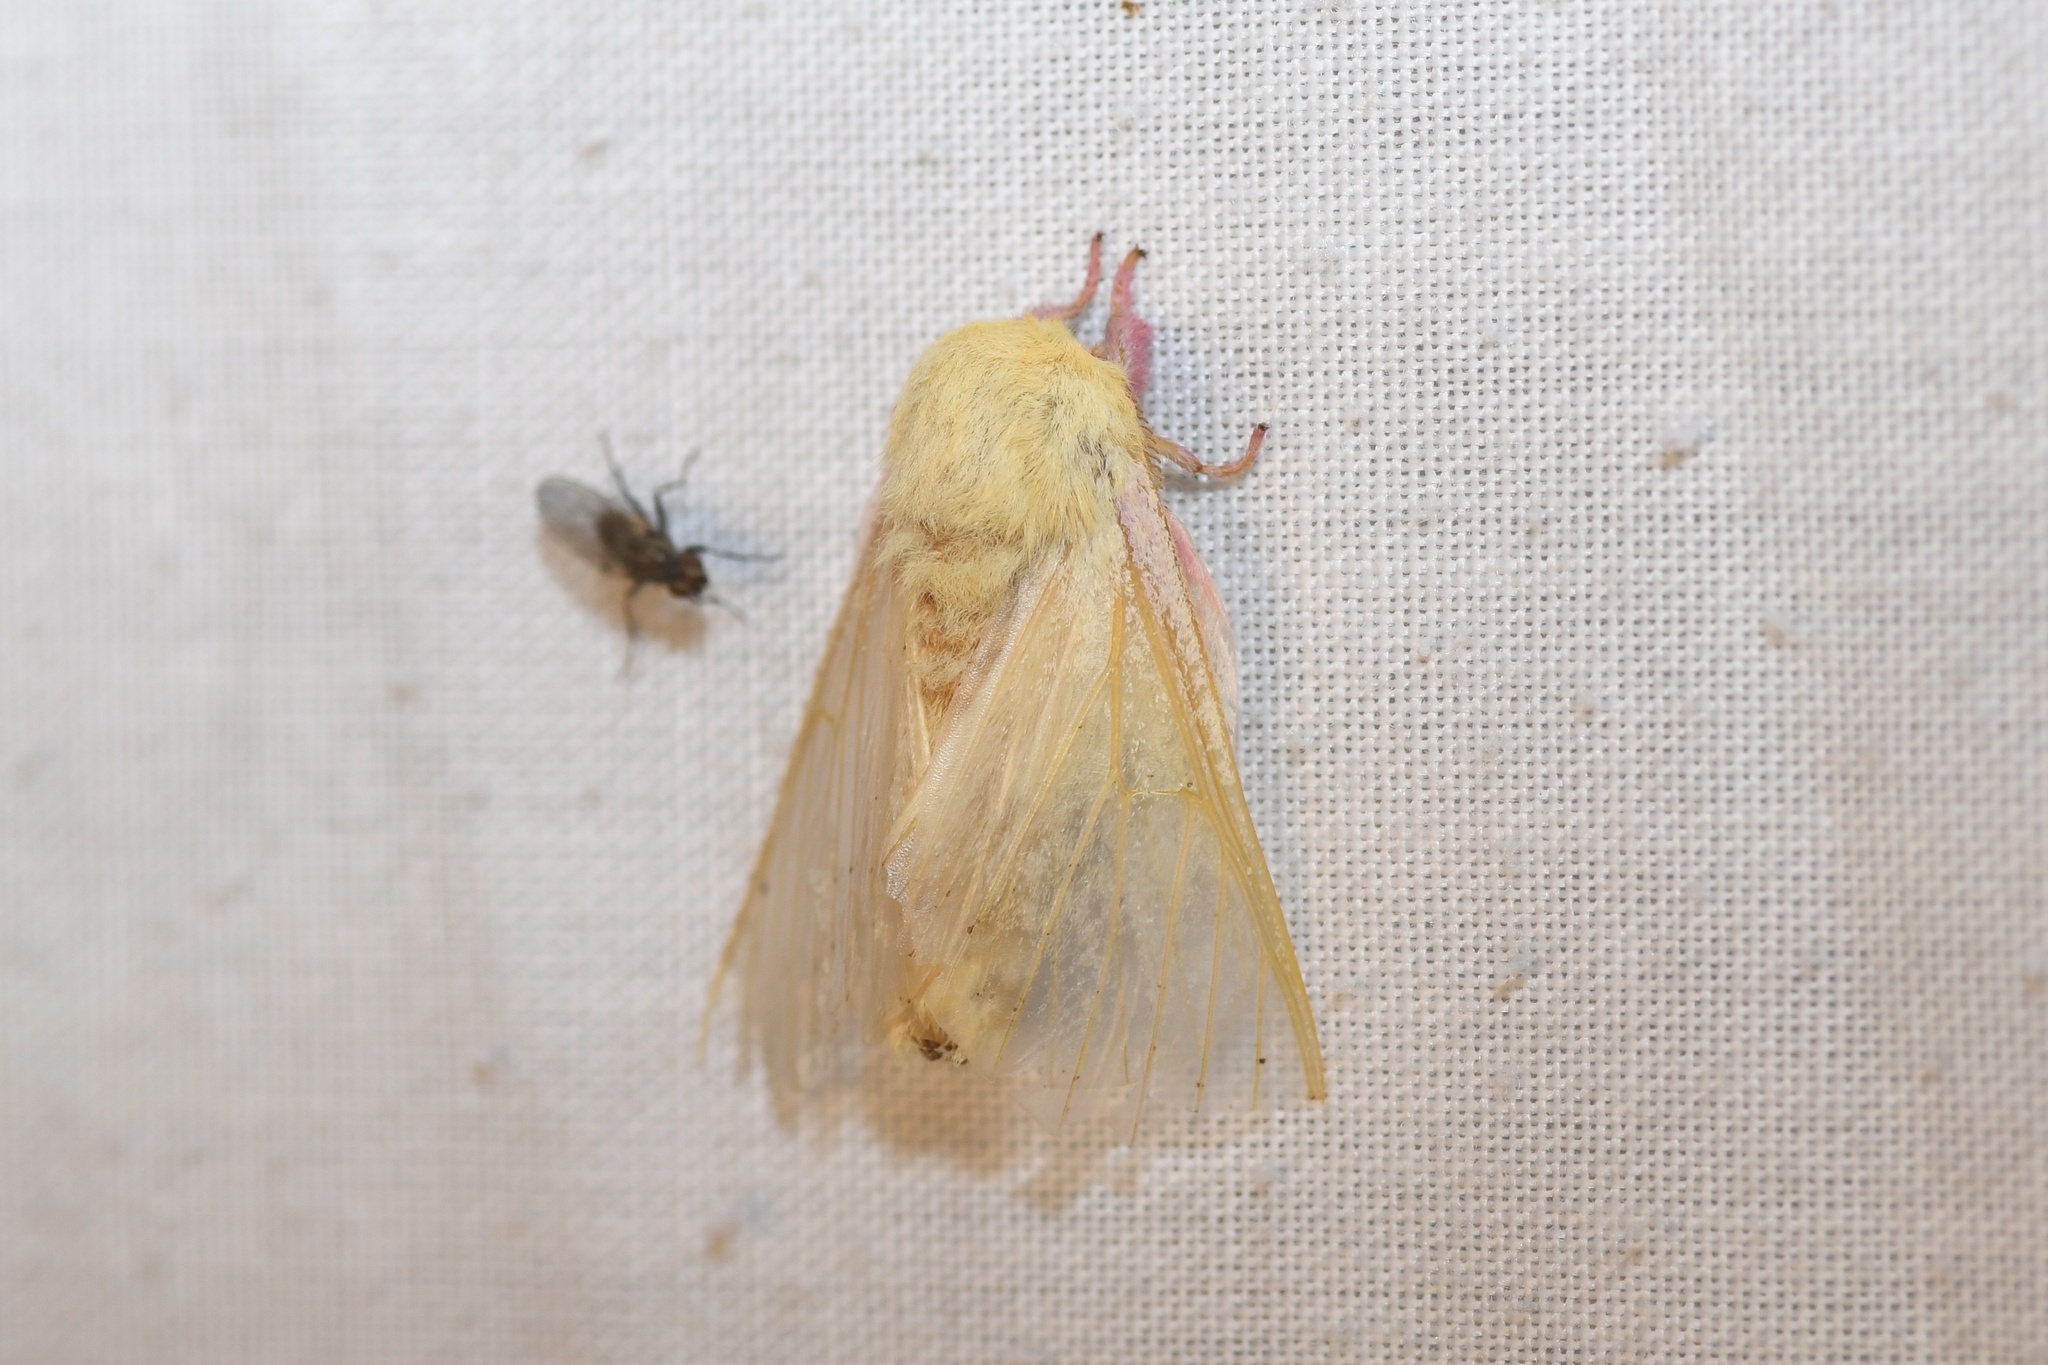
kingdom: Animalia
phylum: Arthropoda
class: Insecta
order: Lepidoptera
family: Saturniidae
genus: Dryocampa
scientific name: Dryocampa rubicunda
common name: Rosy maple moth
